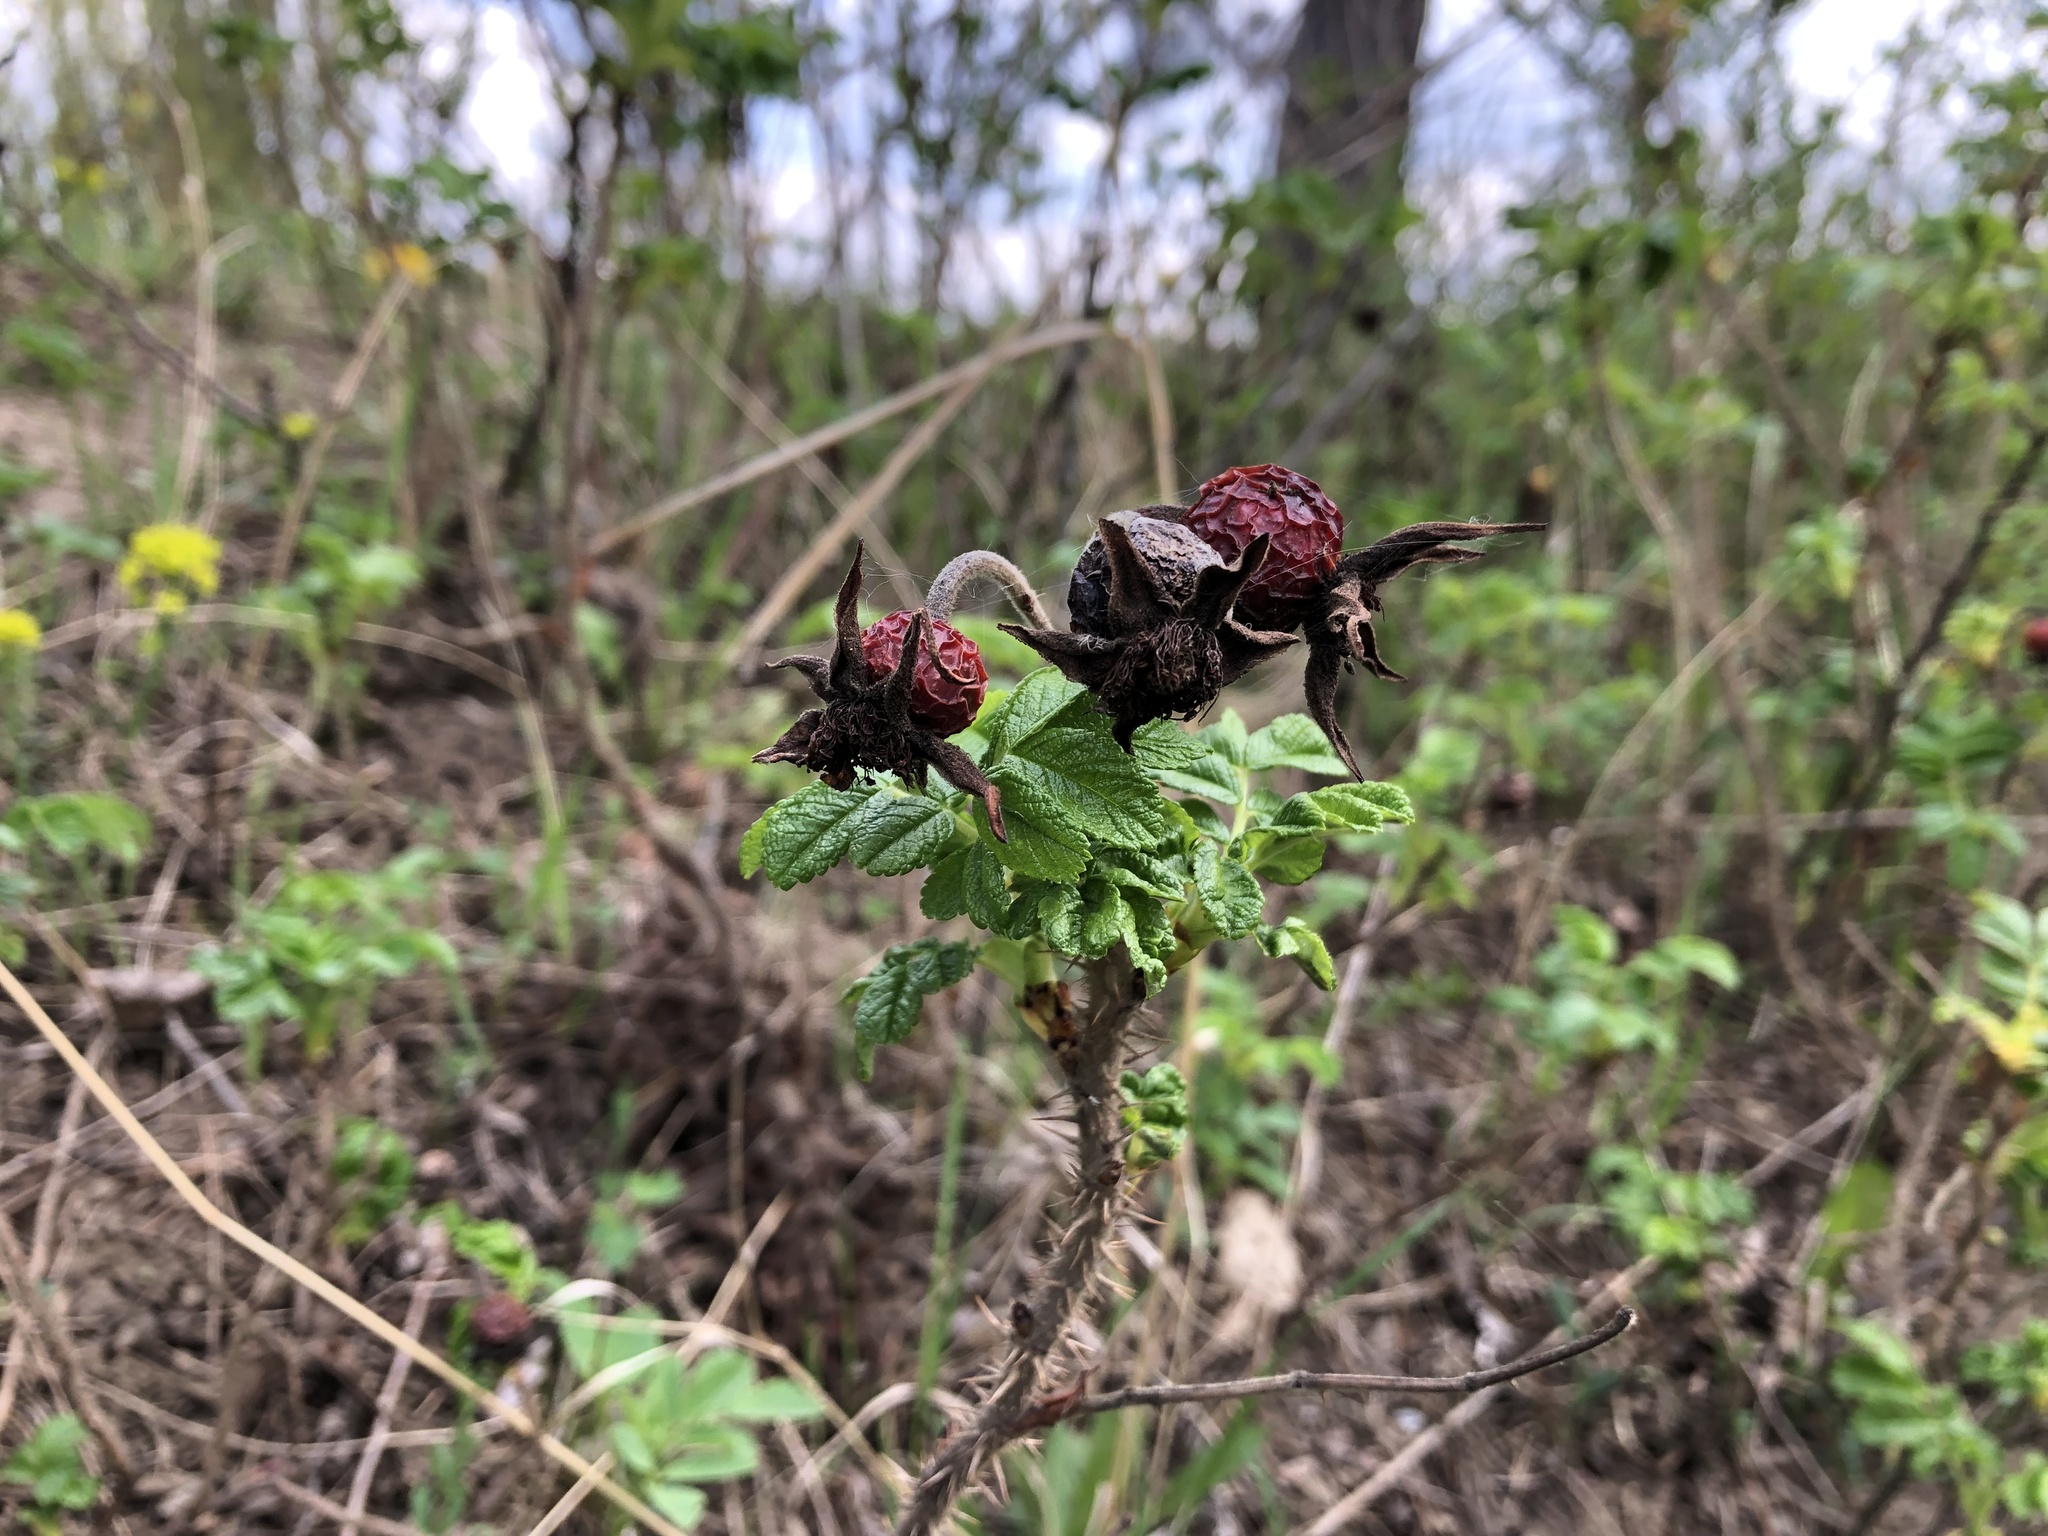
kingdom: Plantae
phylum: Tracheophyta
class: Magnoliopsida
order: Rosales
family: Rosaceae
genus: Rosa
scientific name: Rosa rugosa
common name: Japanese rose
